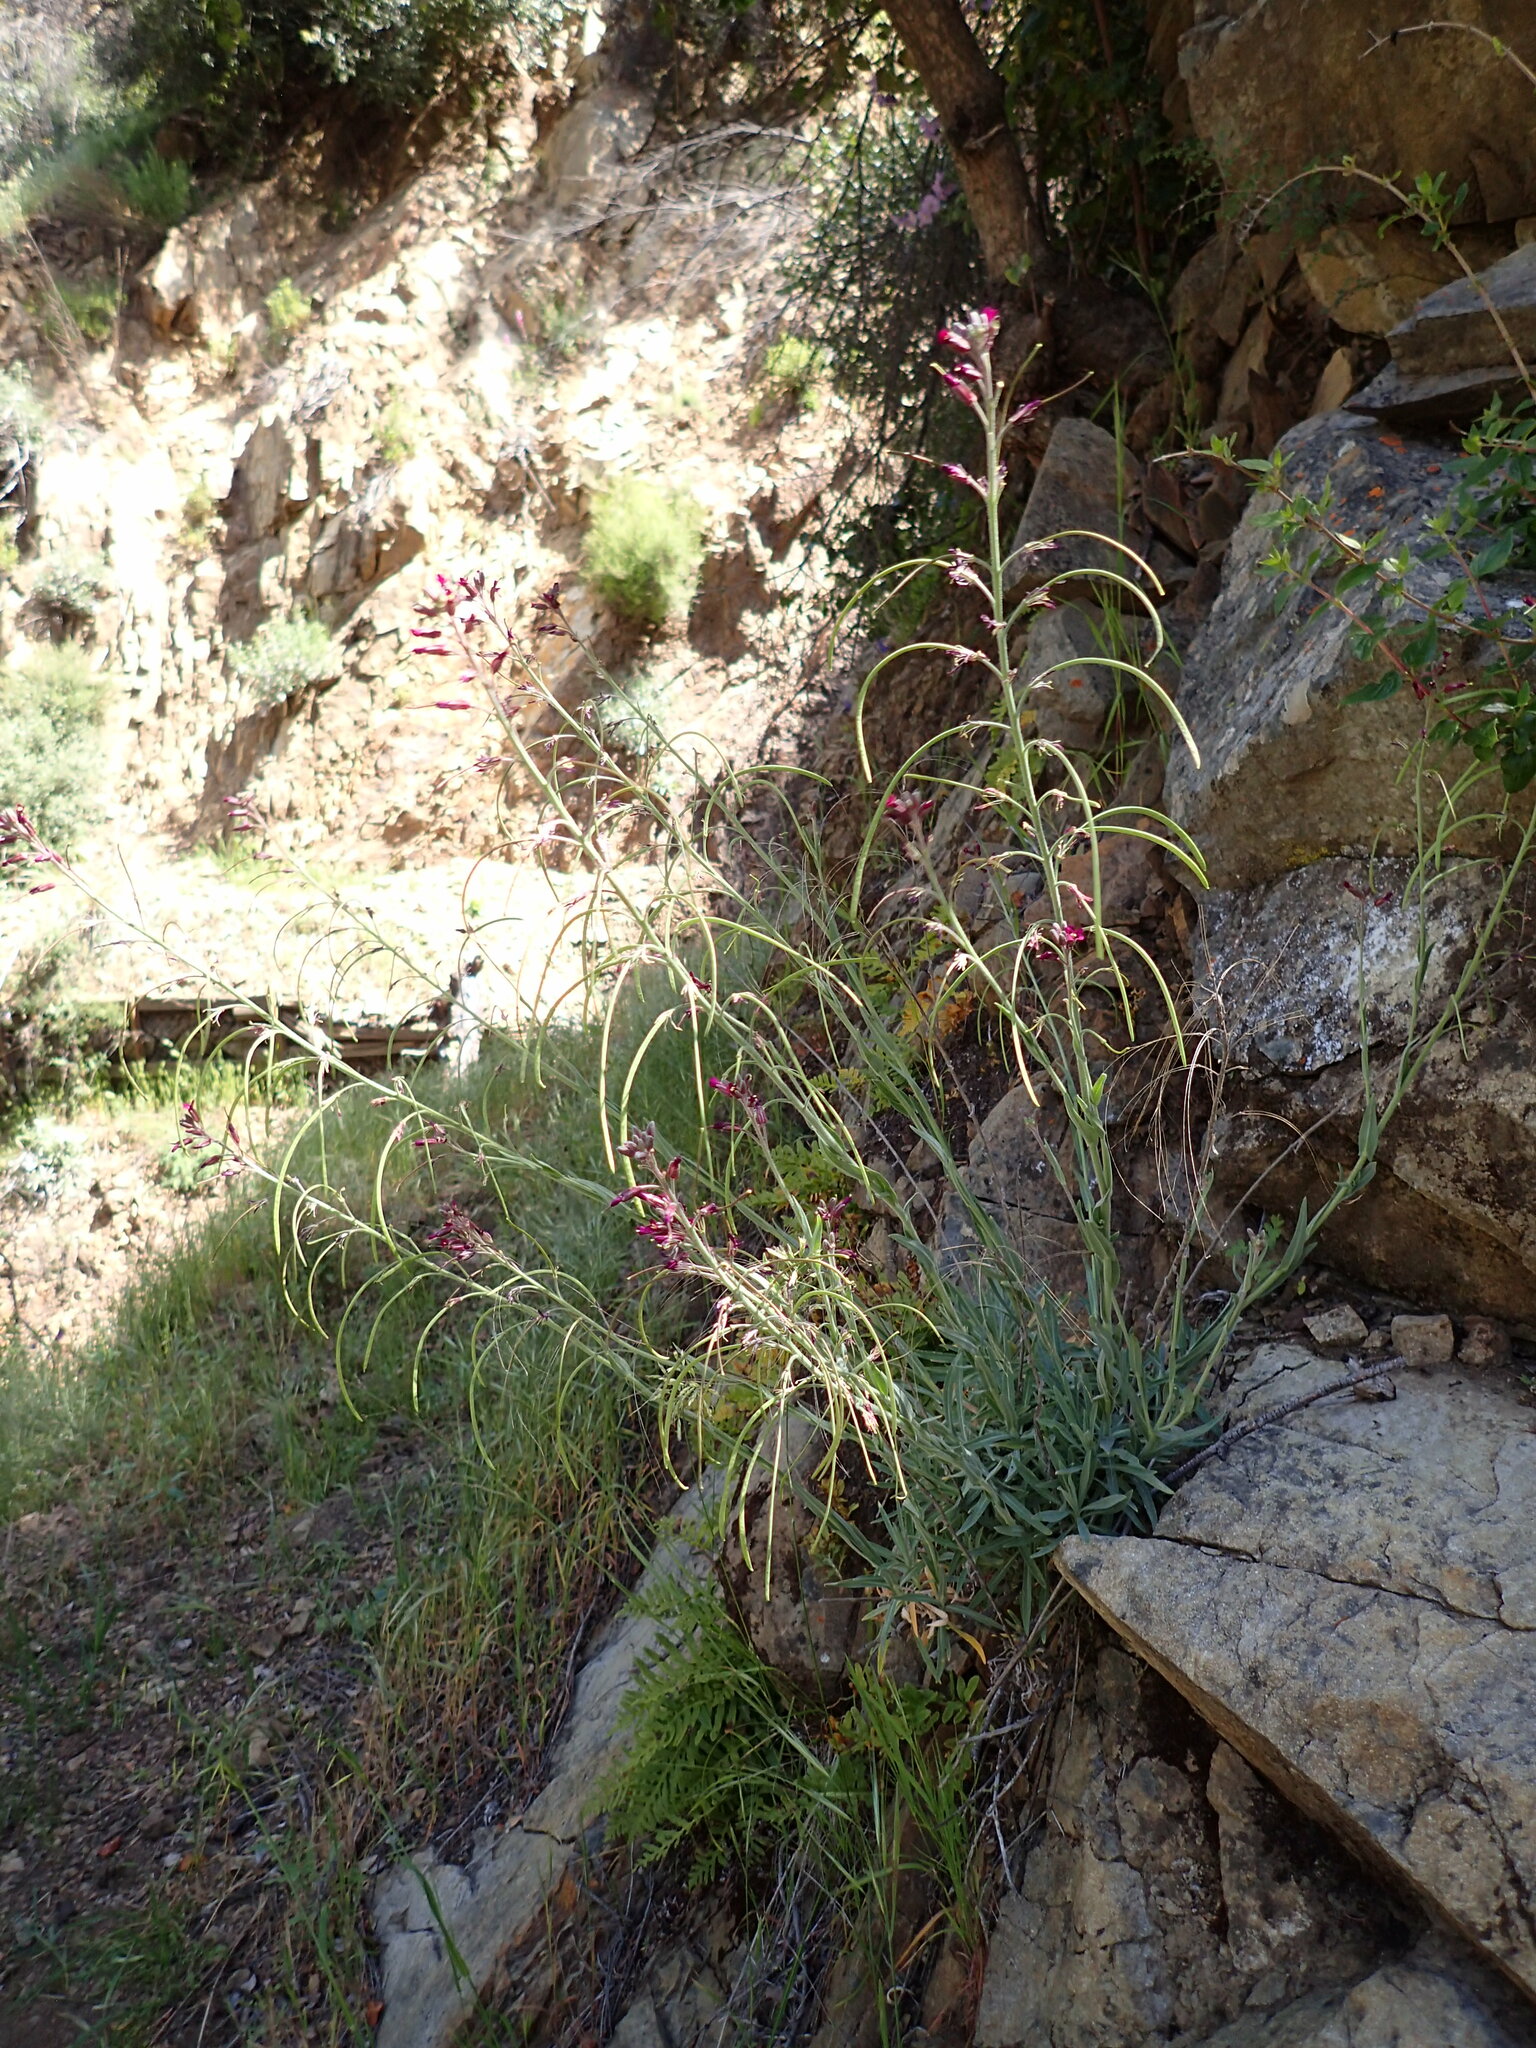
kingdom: Plantae
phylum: Tracheophyta
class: Magnoliopsida
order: Brassicales
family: Brassicaceae
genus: Boechera
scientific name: Boechera arcuata
